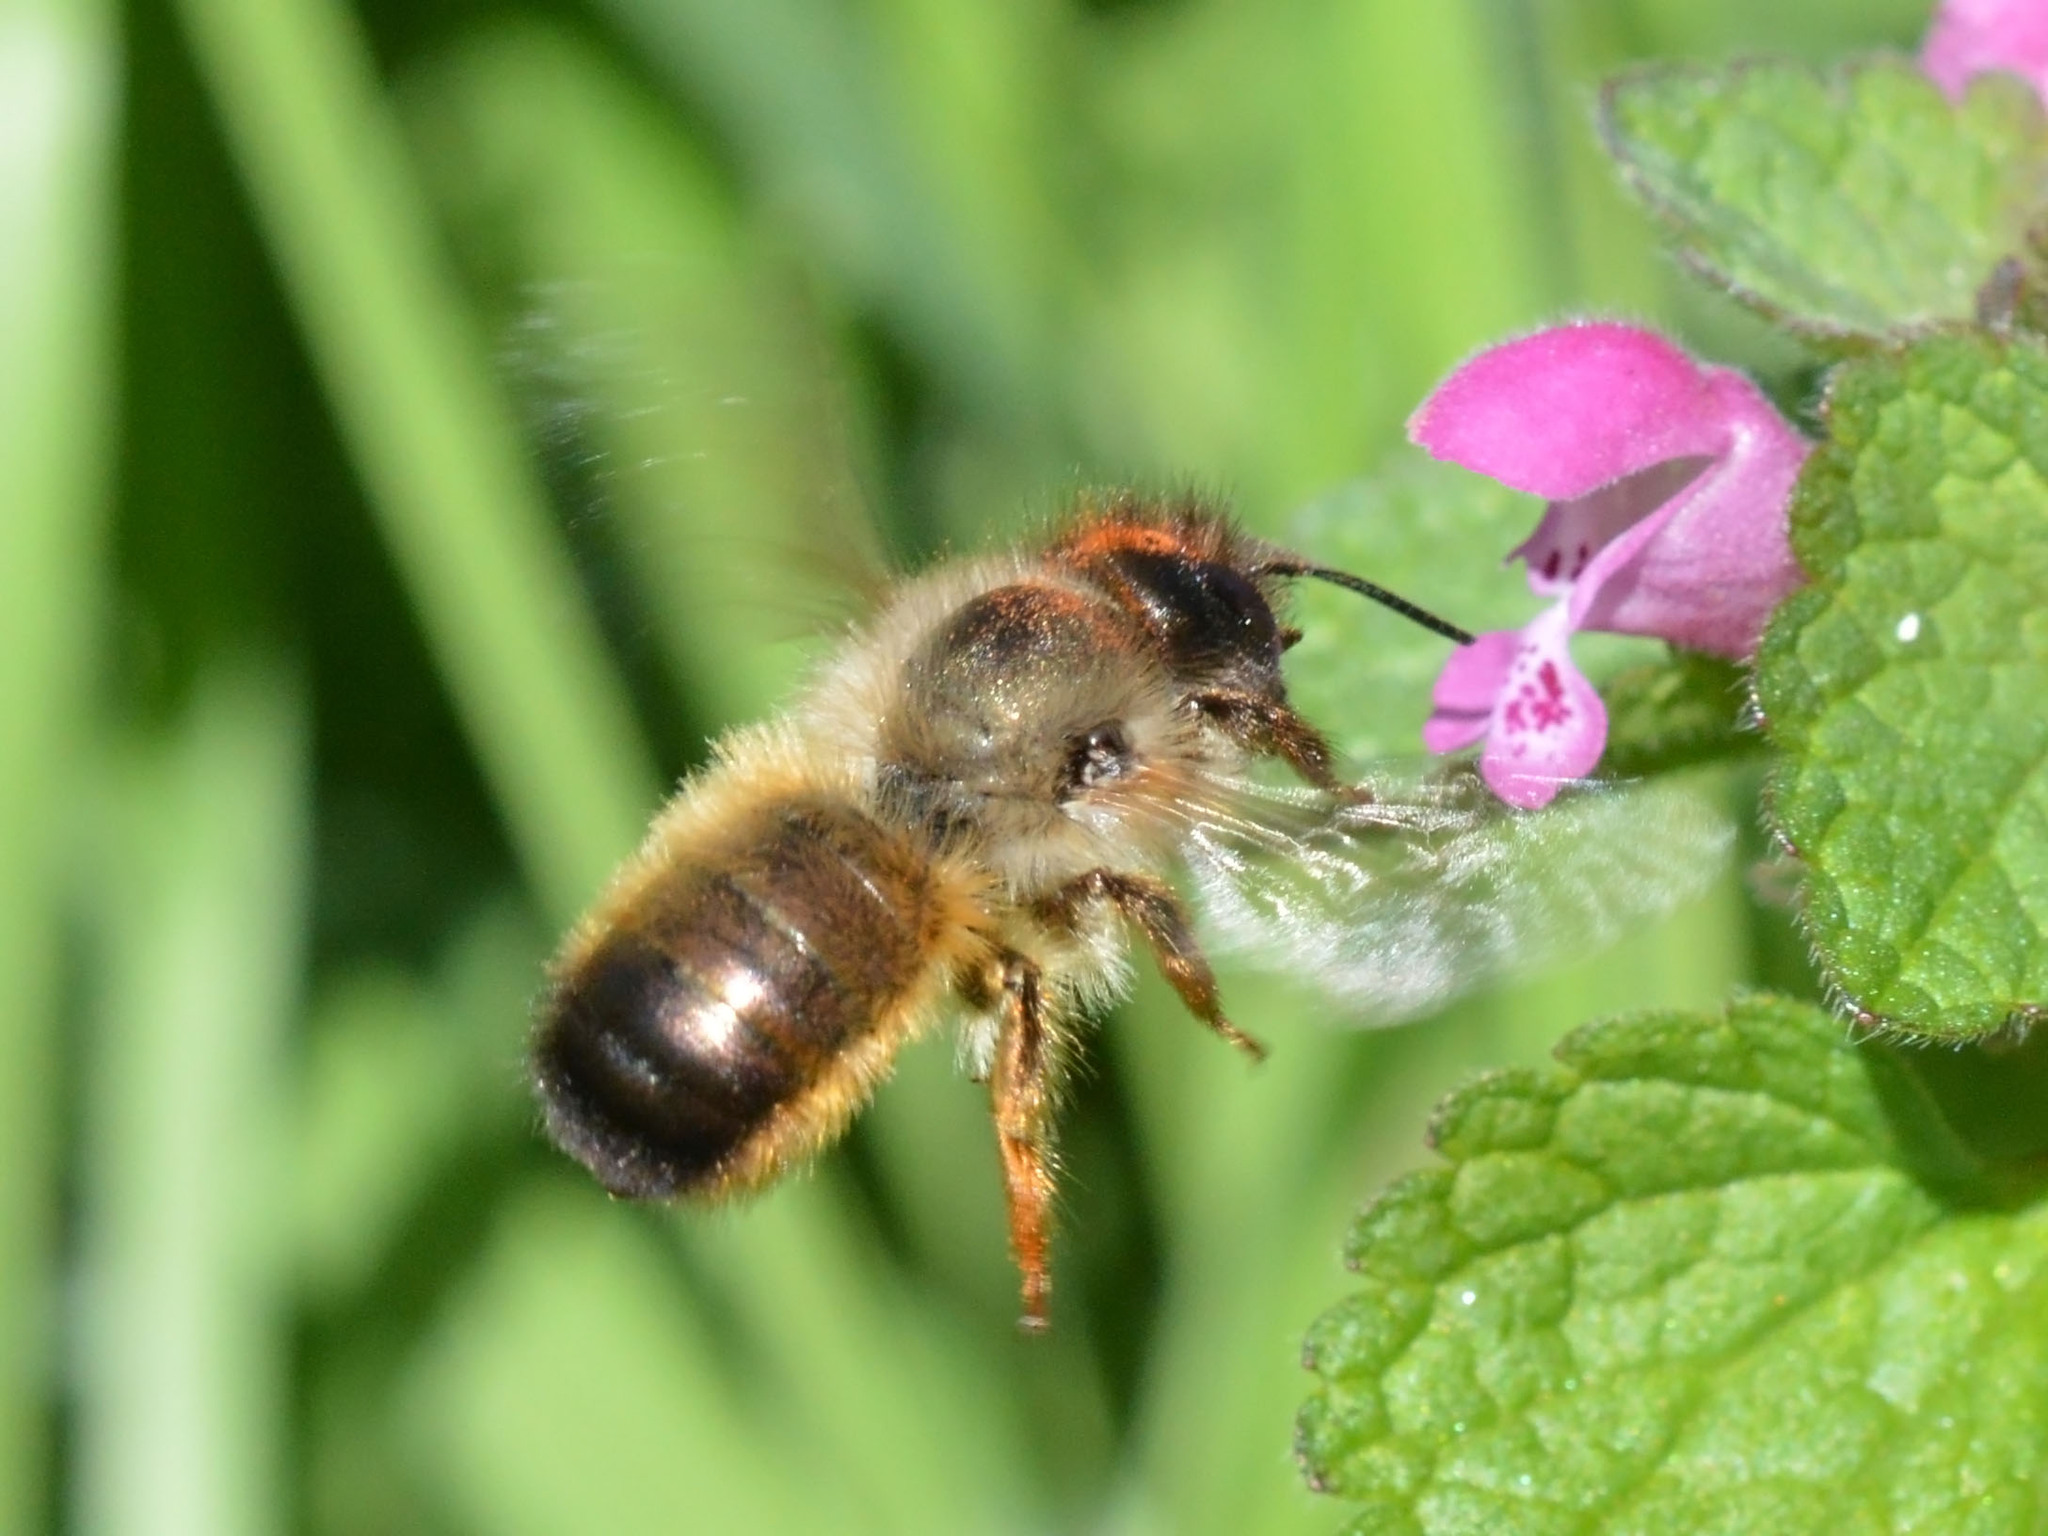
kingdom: Animalia
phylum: Arthropoda
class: Insecta
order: Hymenoptera
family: Megachilidae
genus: Osmia
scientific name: Osmia bicornis
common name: Red mason bee
